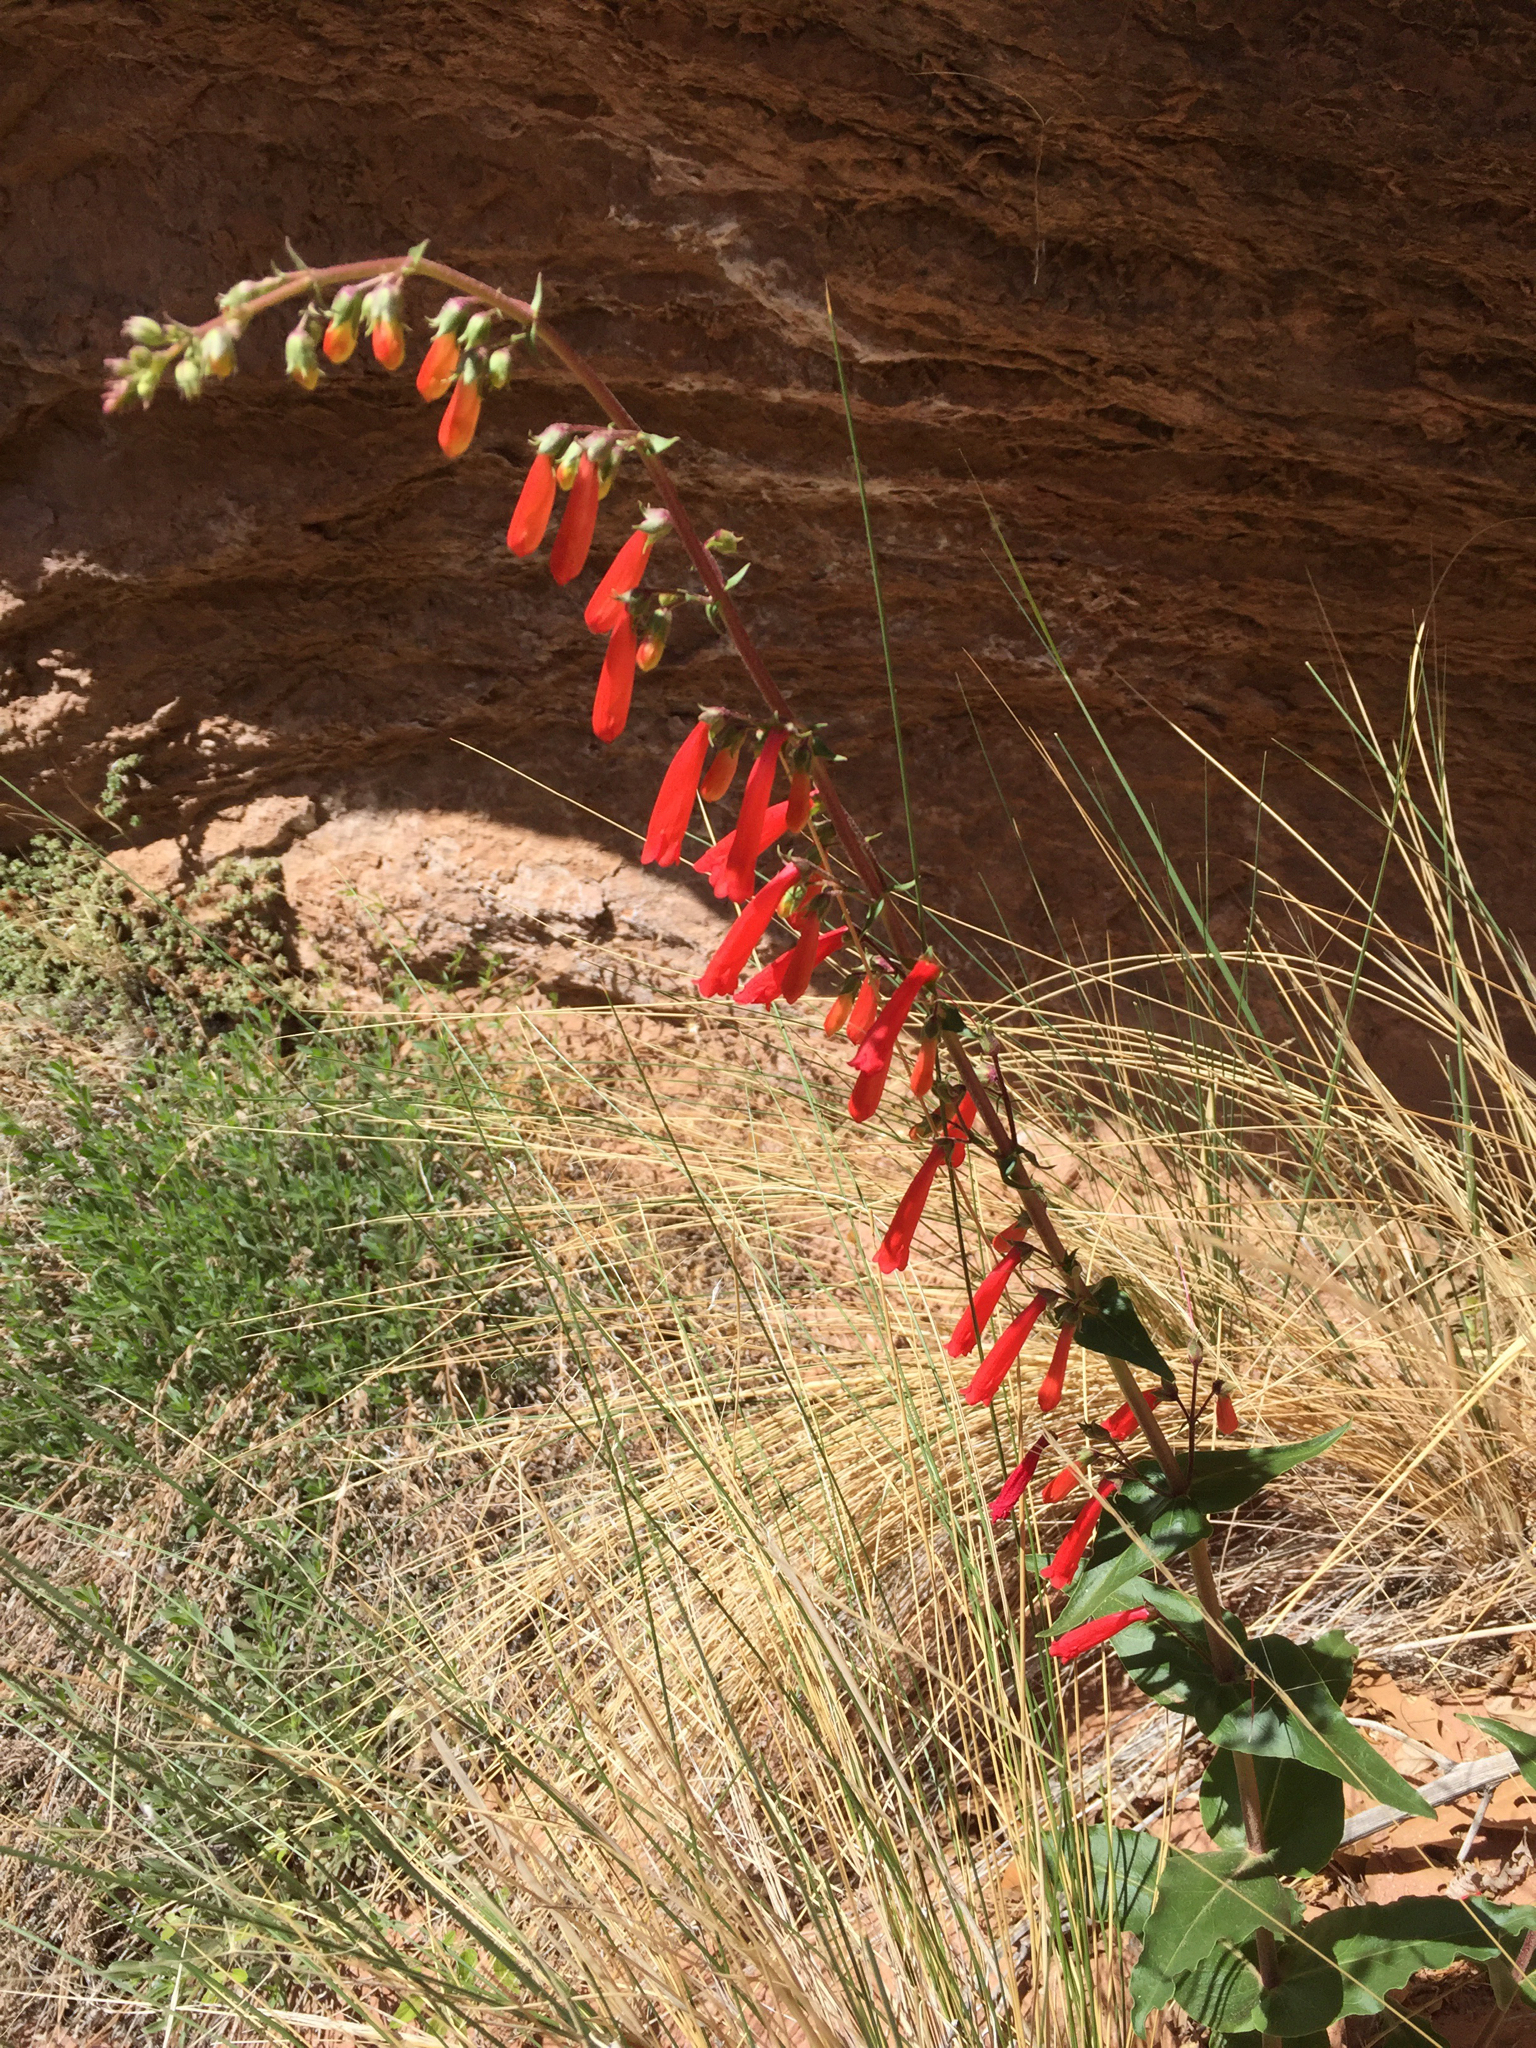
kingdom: Plantae
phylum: Tracheophyta
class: Magnoliopsida
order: Lamiales
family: Plantaginaceae
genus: Penstemon
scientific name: Penstemon eatonii
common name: Eaton's penstemon
